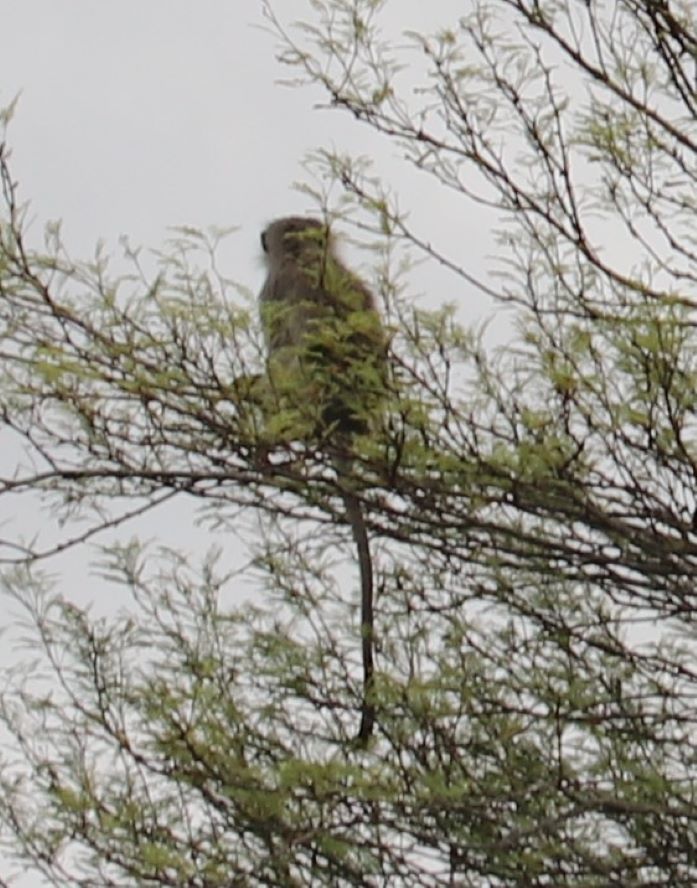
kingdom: Animalia
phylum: Chordata
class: Mammalia
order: Primates
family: Cercopithecidae
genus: Chlorocebus
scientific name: Chlorocebus pygerythrus
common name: Vervet monkey
